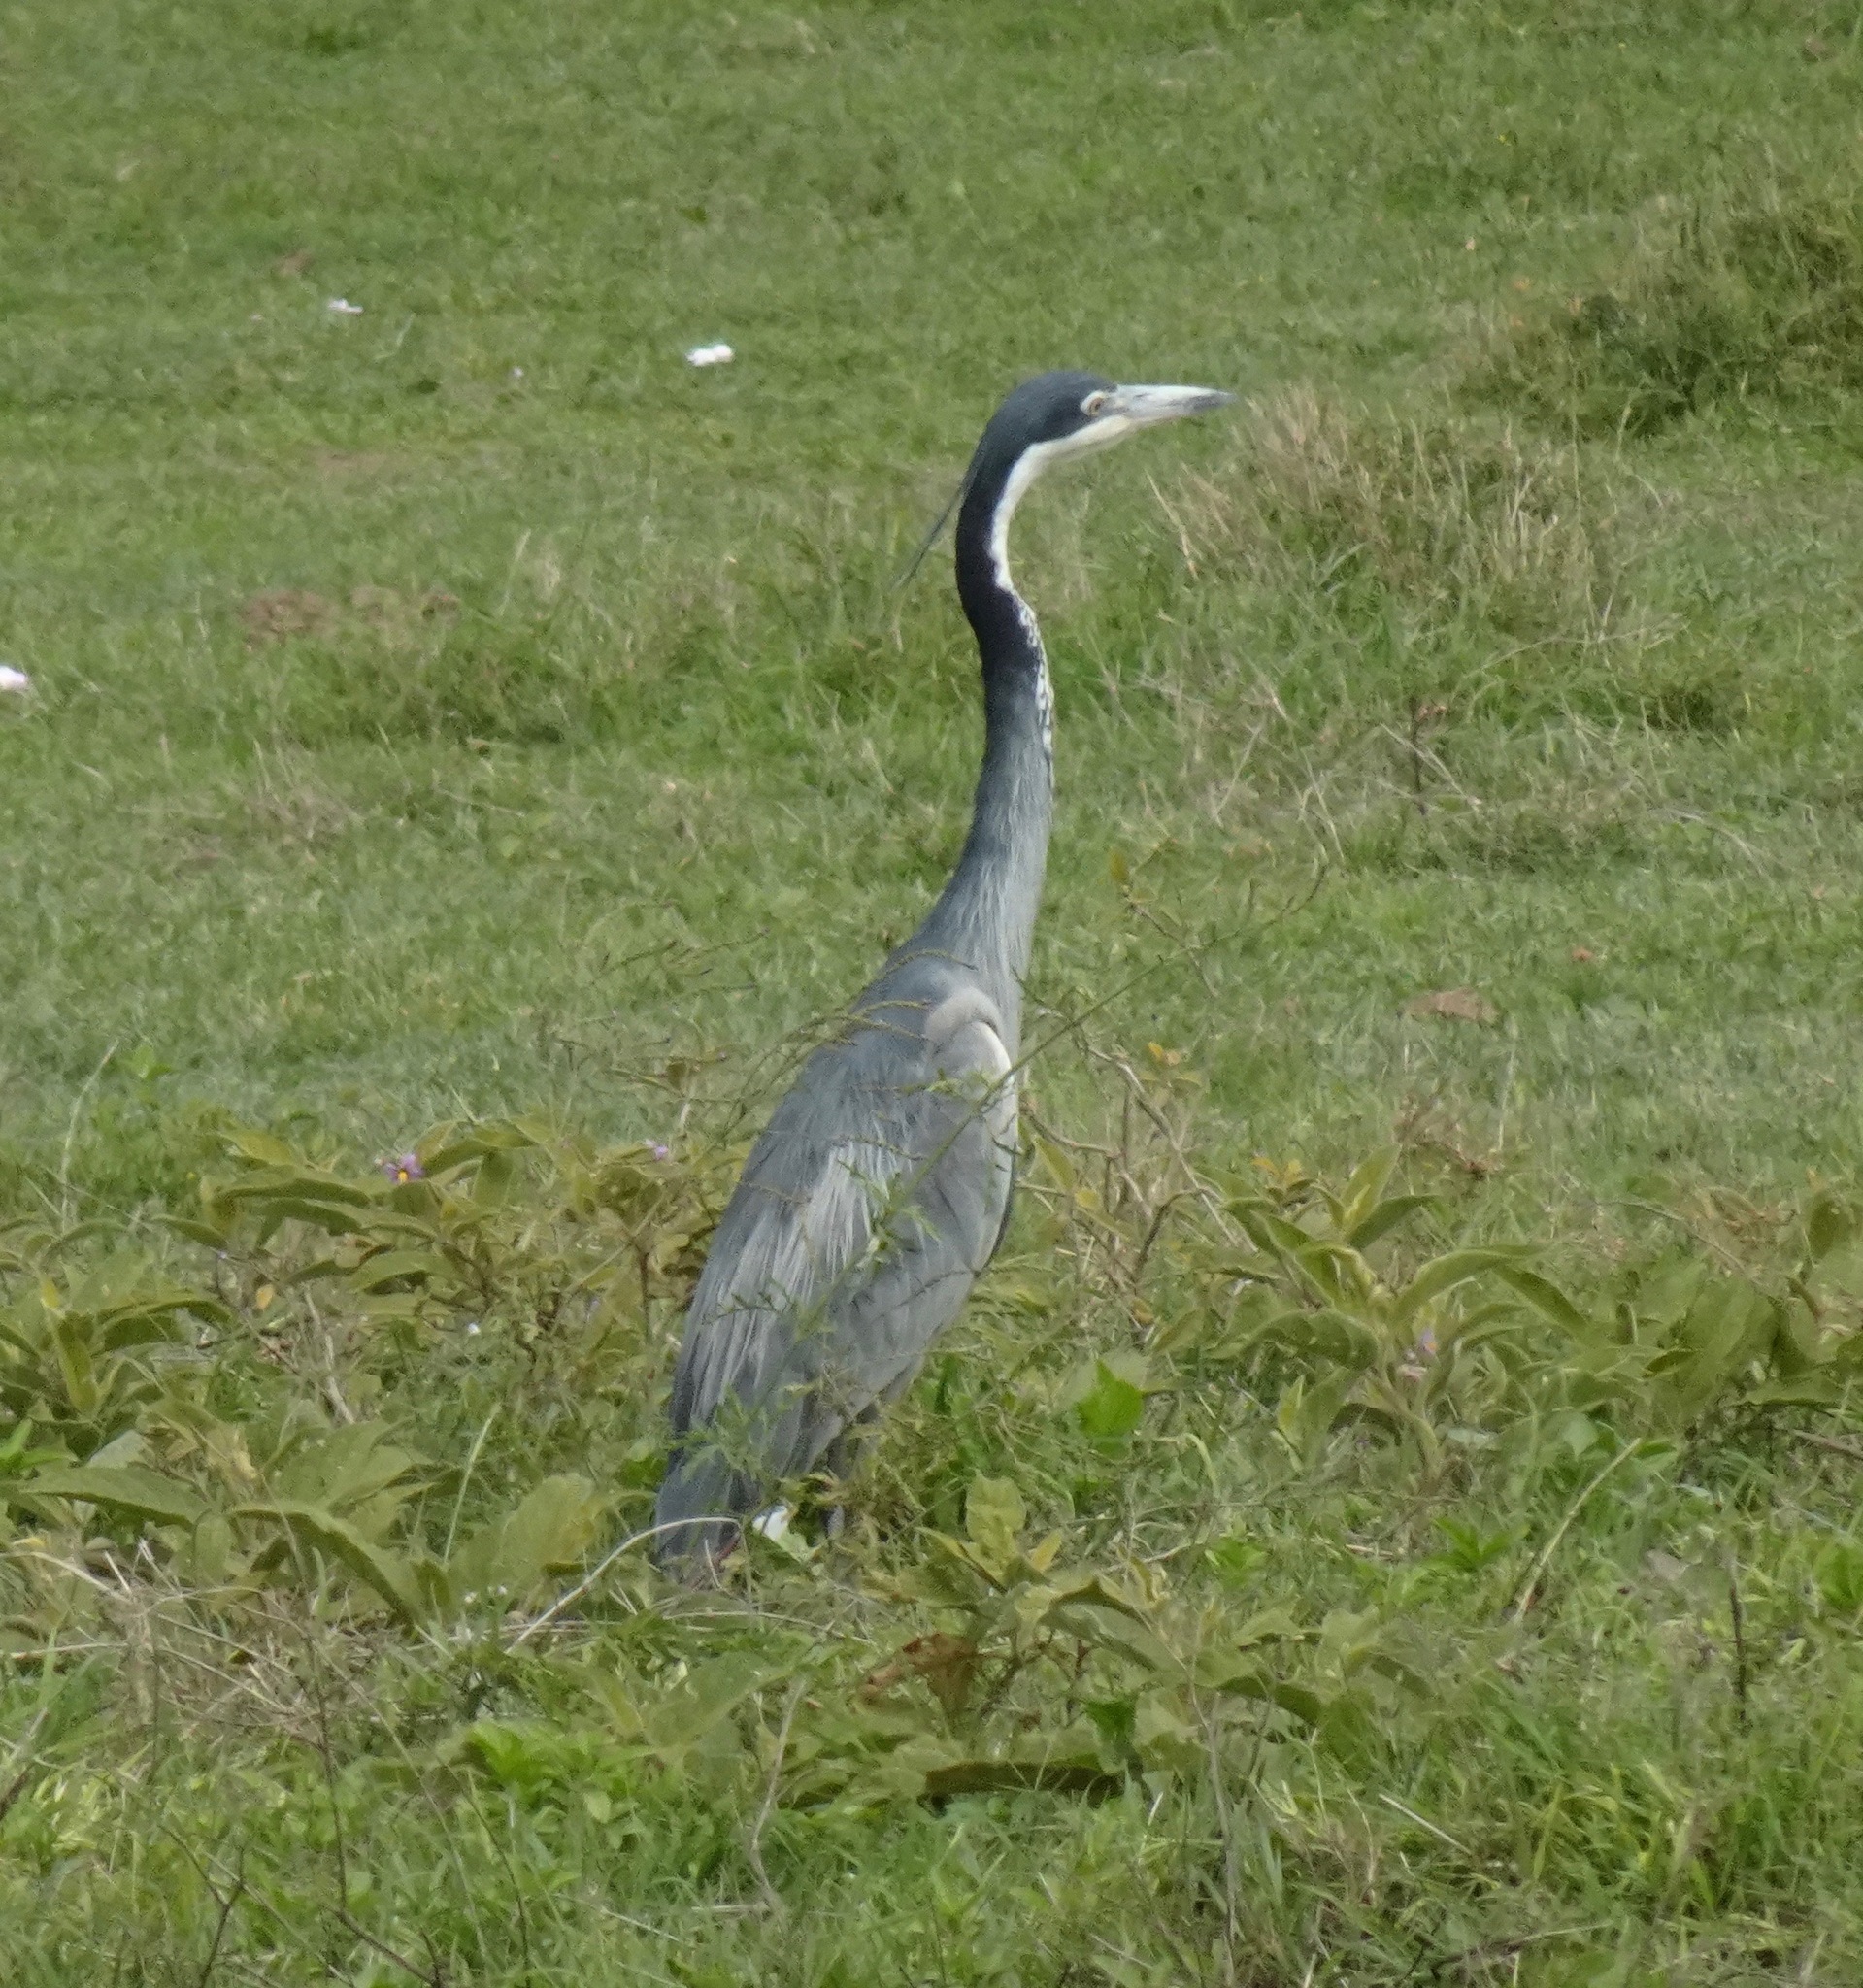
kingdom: Animalia
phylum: Chordata
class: Aves
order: Pelecaniformes
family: Ardeidae
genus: Ardea
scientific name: Ardea melanocephala
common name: Black-headed heron
